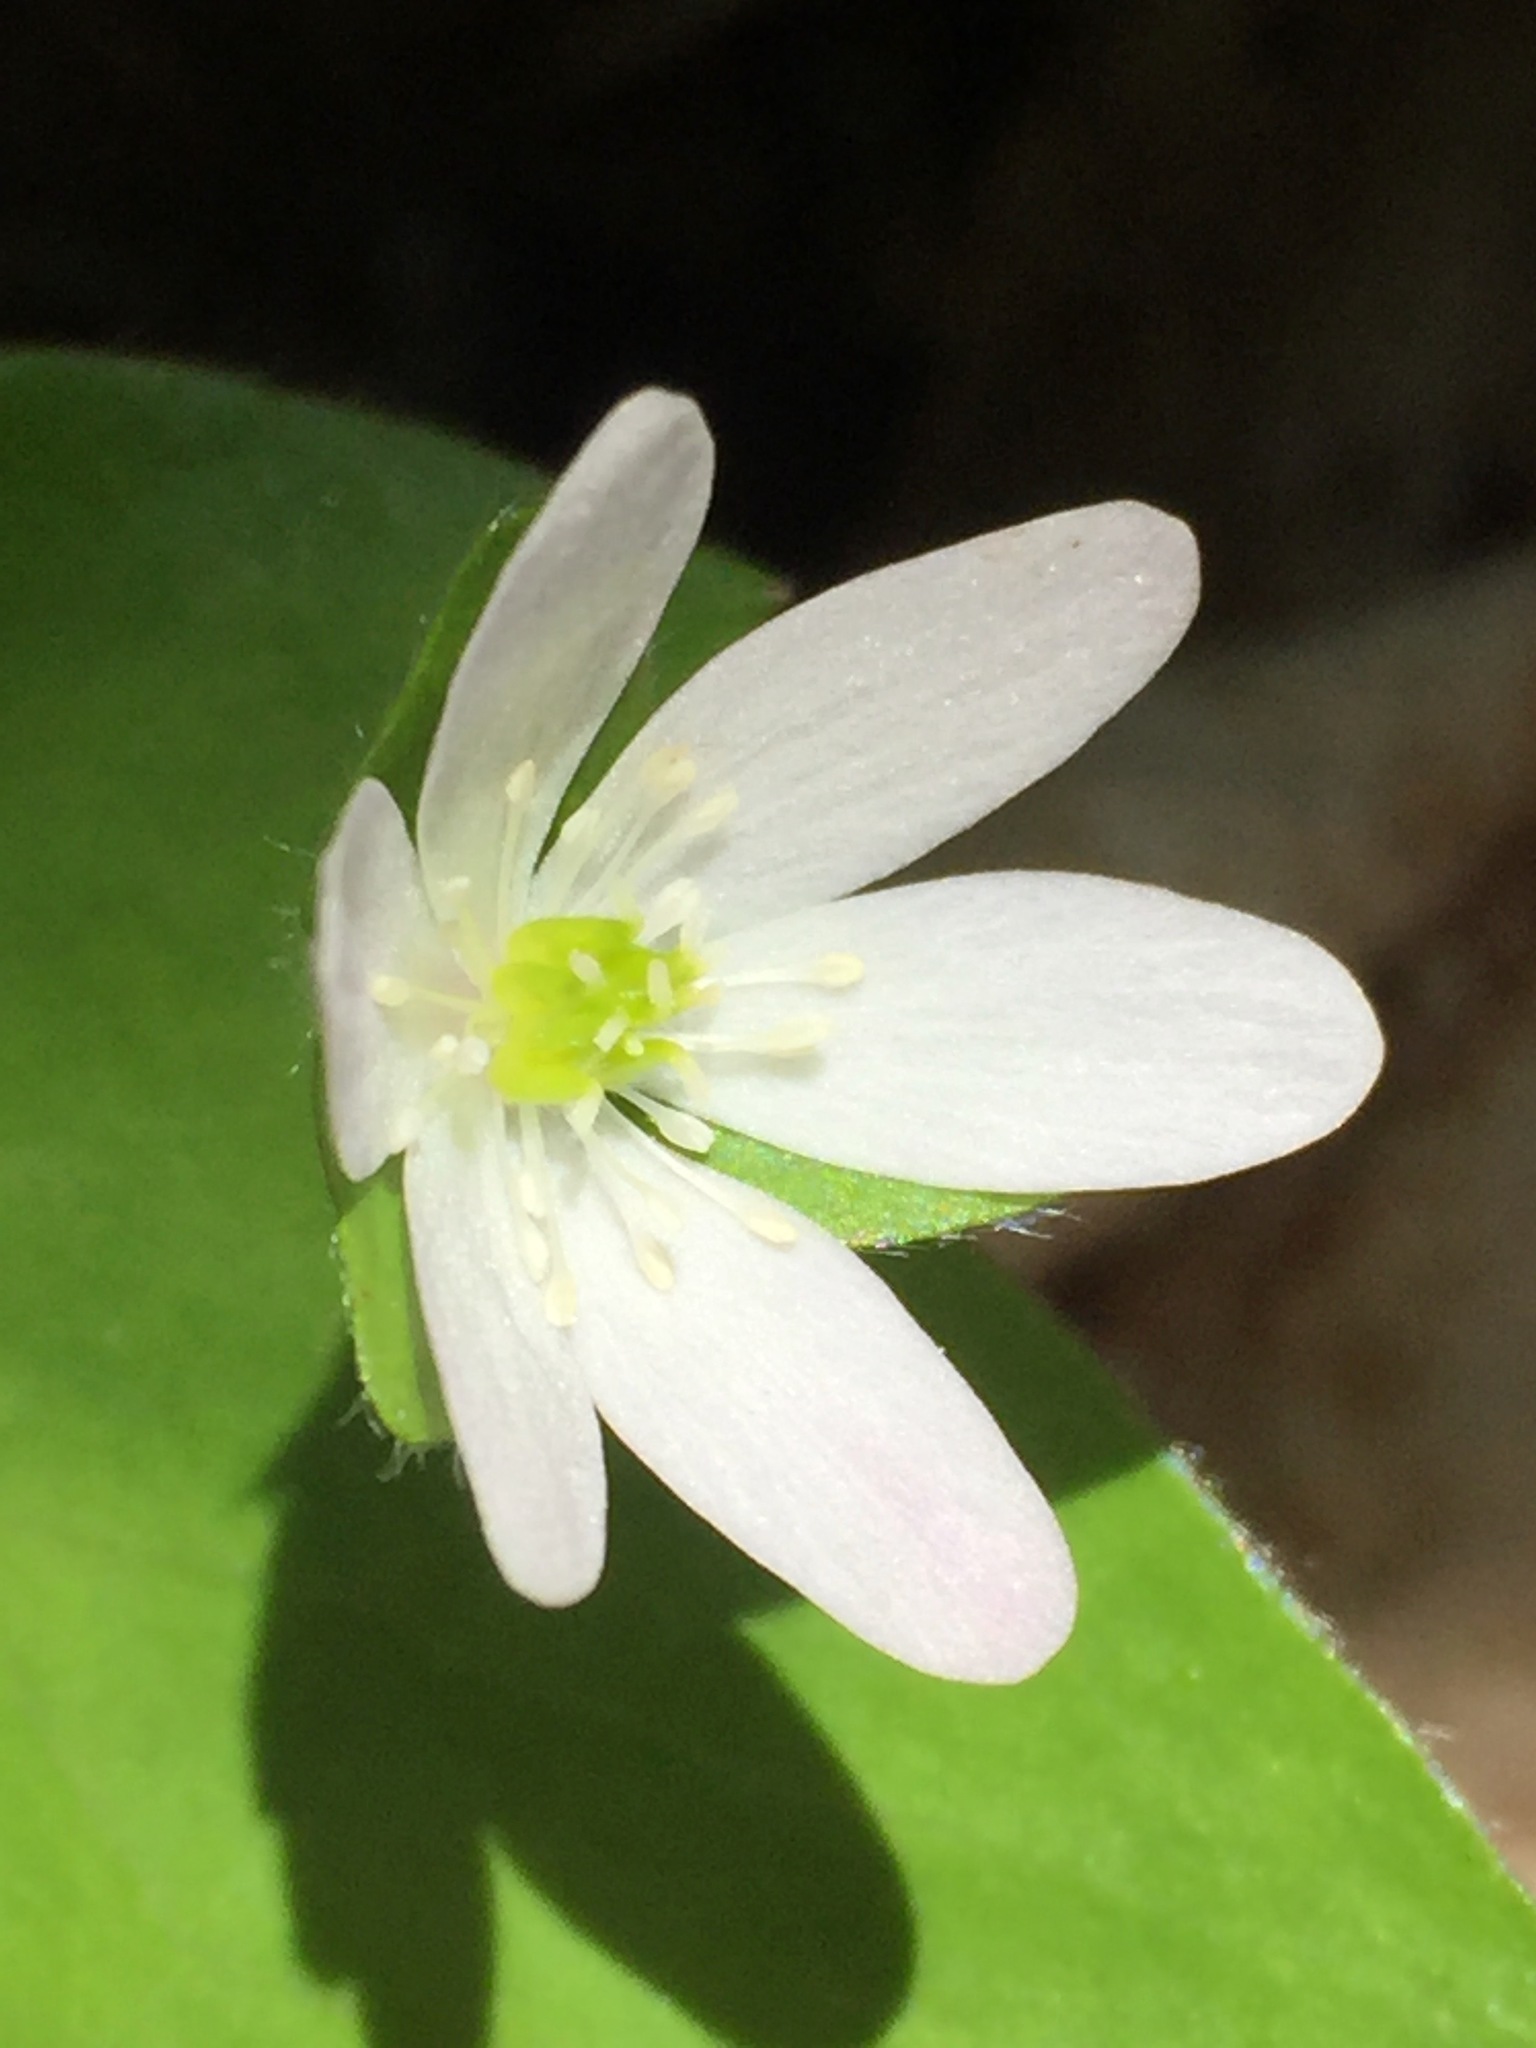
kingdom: Plantae
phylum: Tracheophyta
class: Magnoliopsida
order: Ranunculales
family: Ranunculaceae
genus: Hepatica
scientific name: Hepatica acutiloba
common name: Sharp-lobed hepatica
